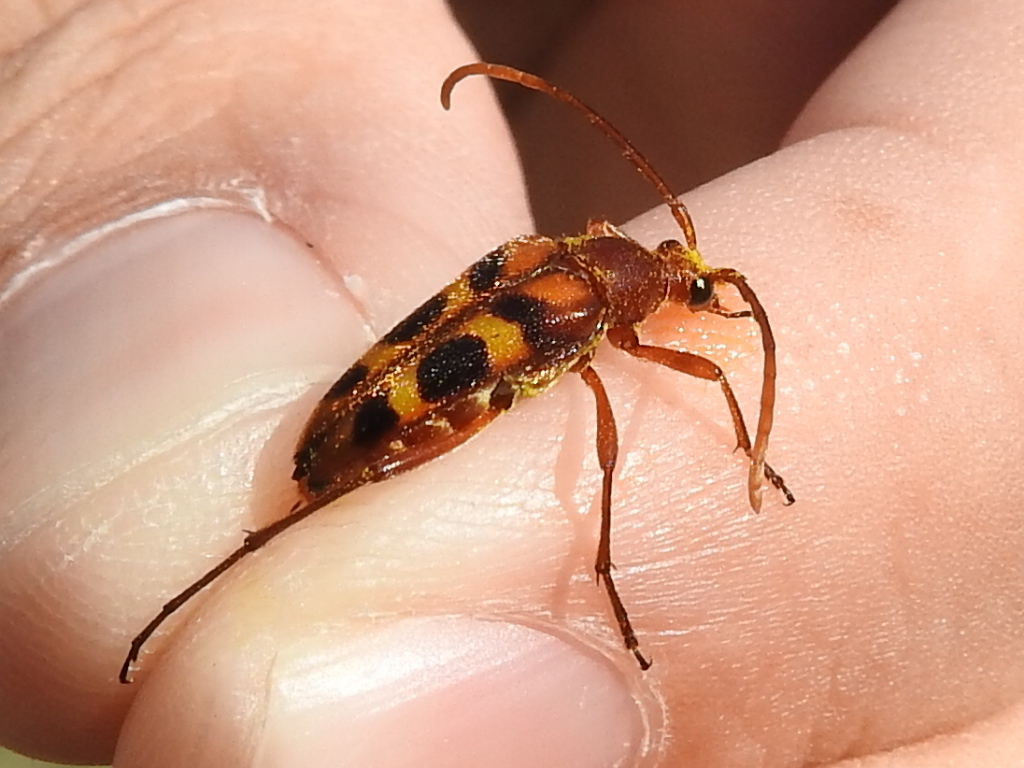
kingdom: Animalia
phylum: Arthropoda
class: Insecta
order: Coleoptera
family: Cerambycidae
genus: Strangalia
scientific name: Strangalia sexnotata
